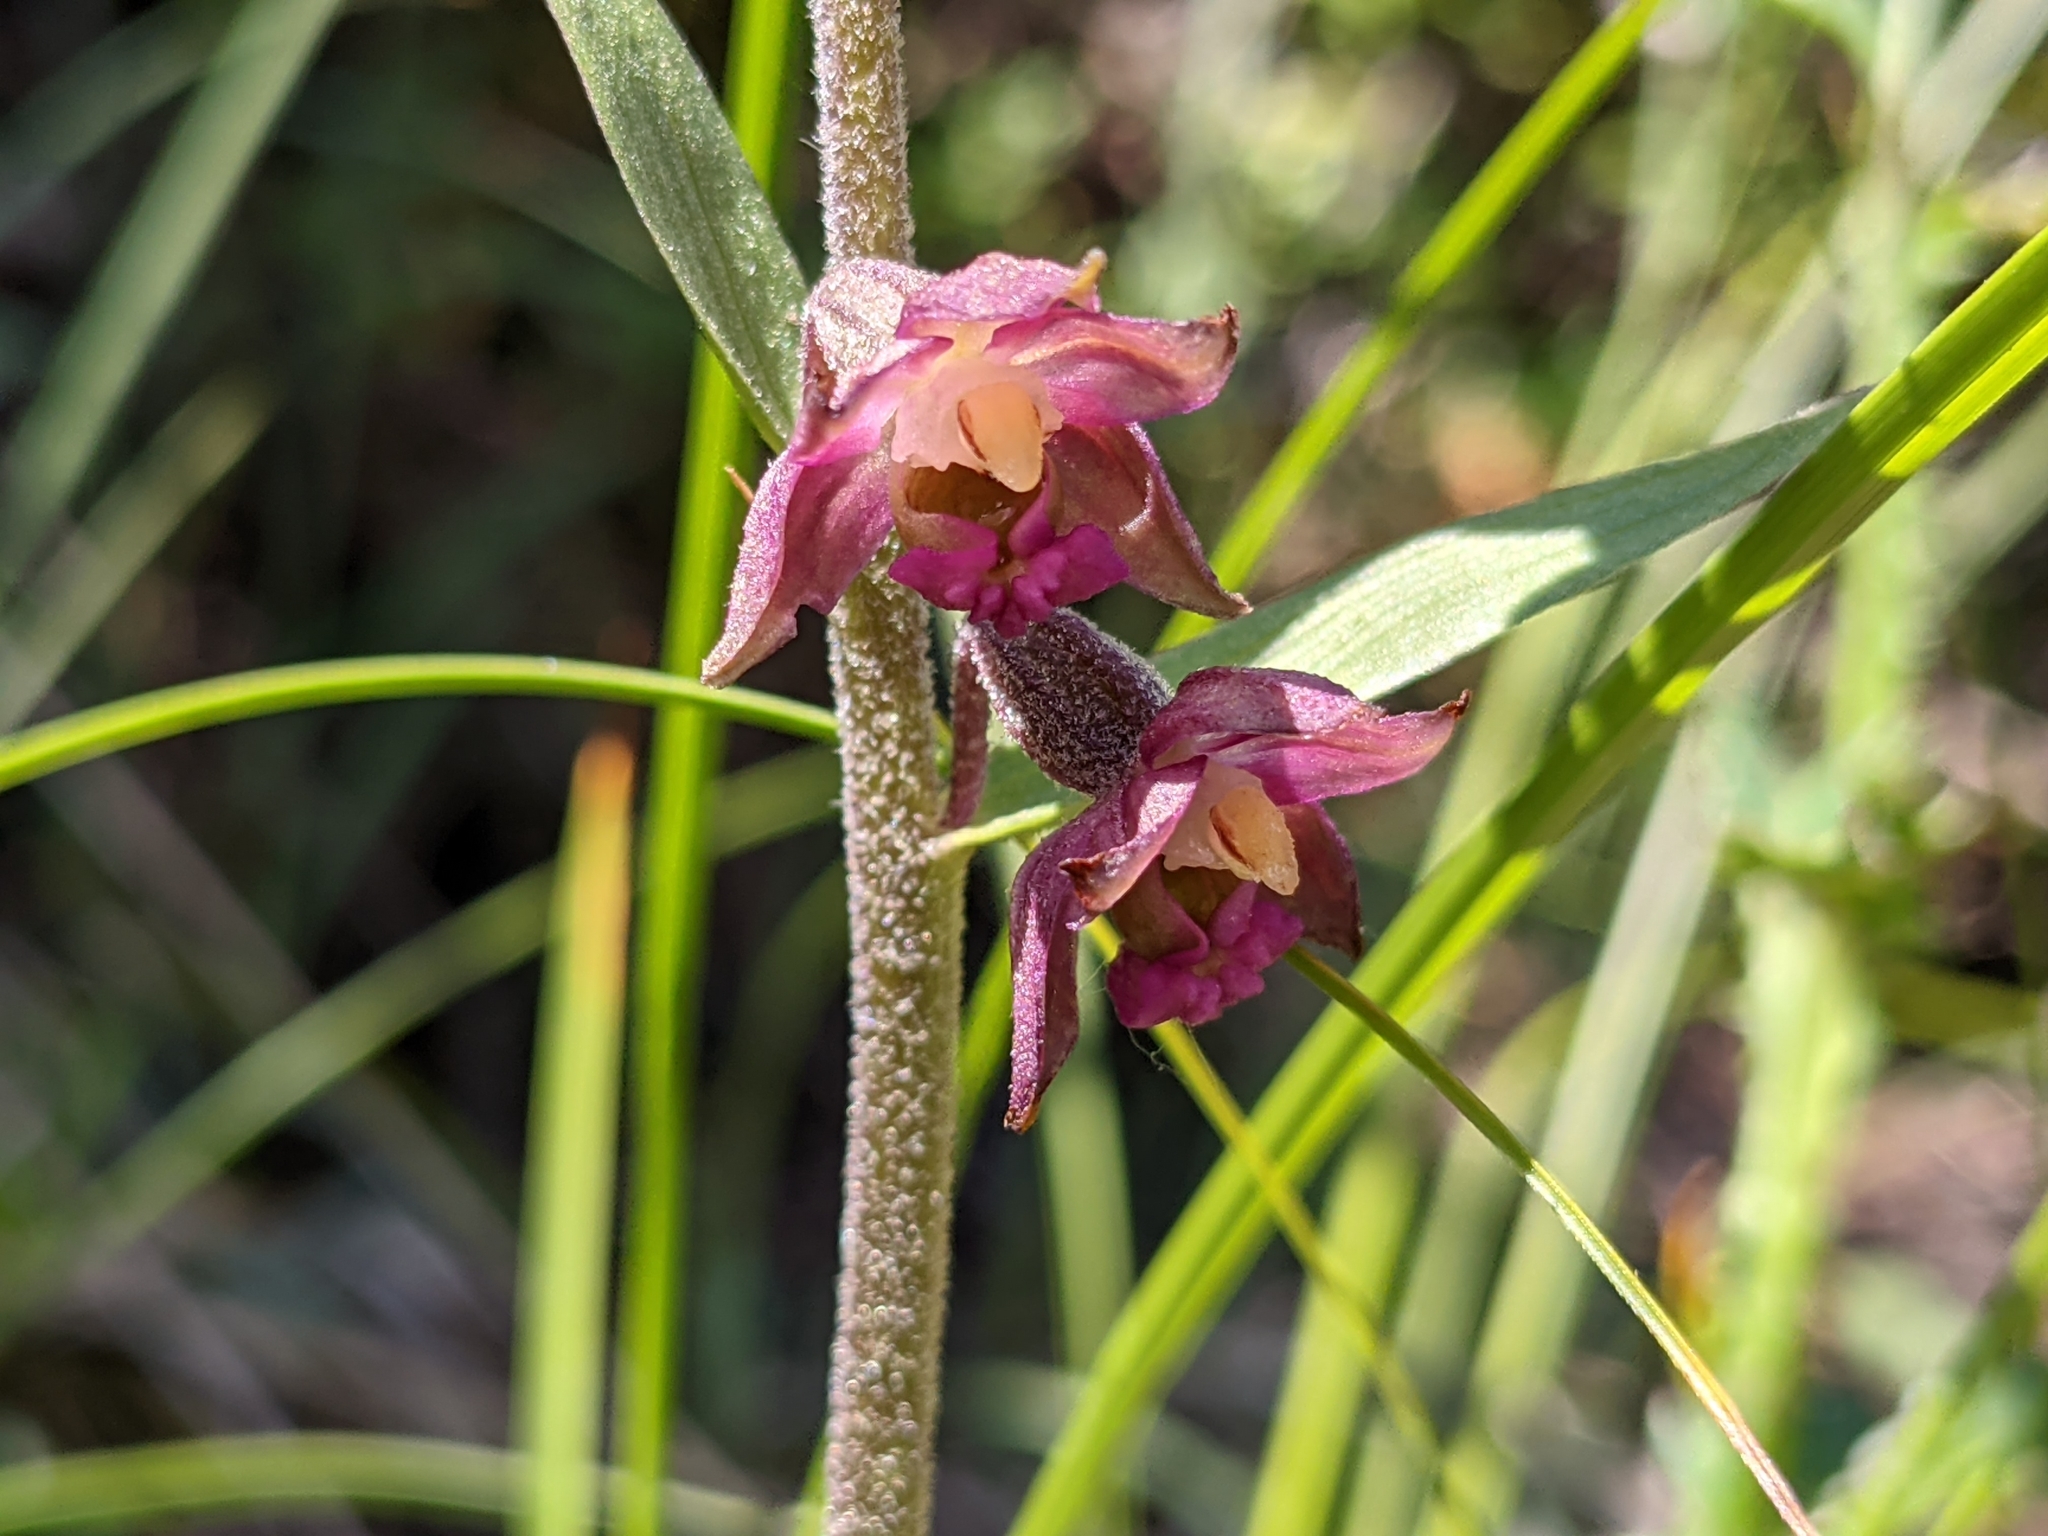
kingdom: Plantae
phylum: Tracheophyta
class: Liliopsida
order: Asparagales
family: Orchidaceae
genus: Epipactis
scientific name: Epipactis atrorubens
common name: Dark-red helleborine
